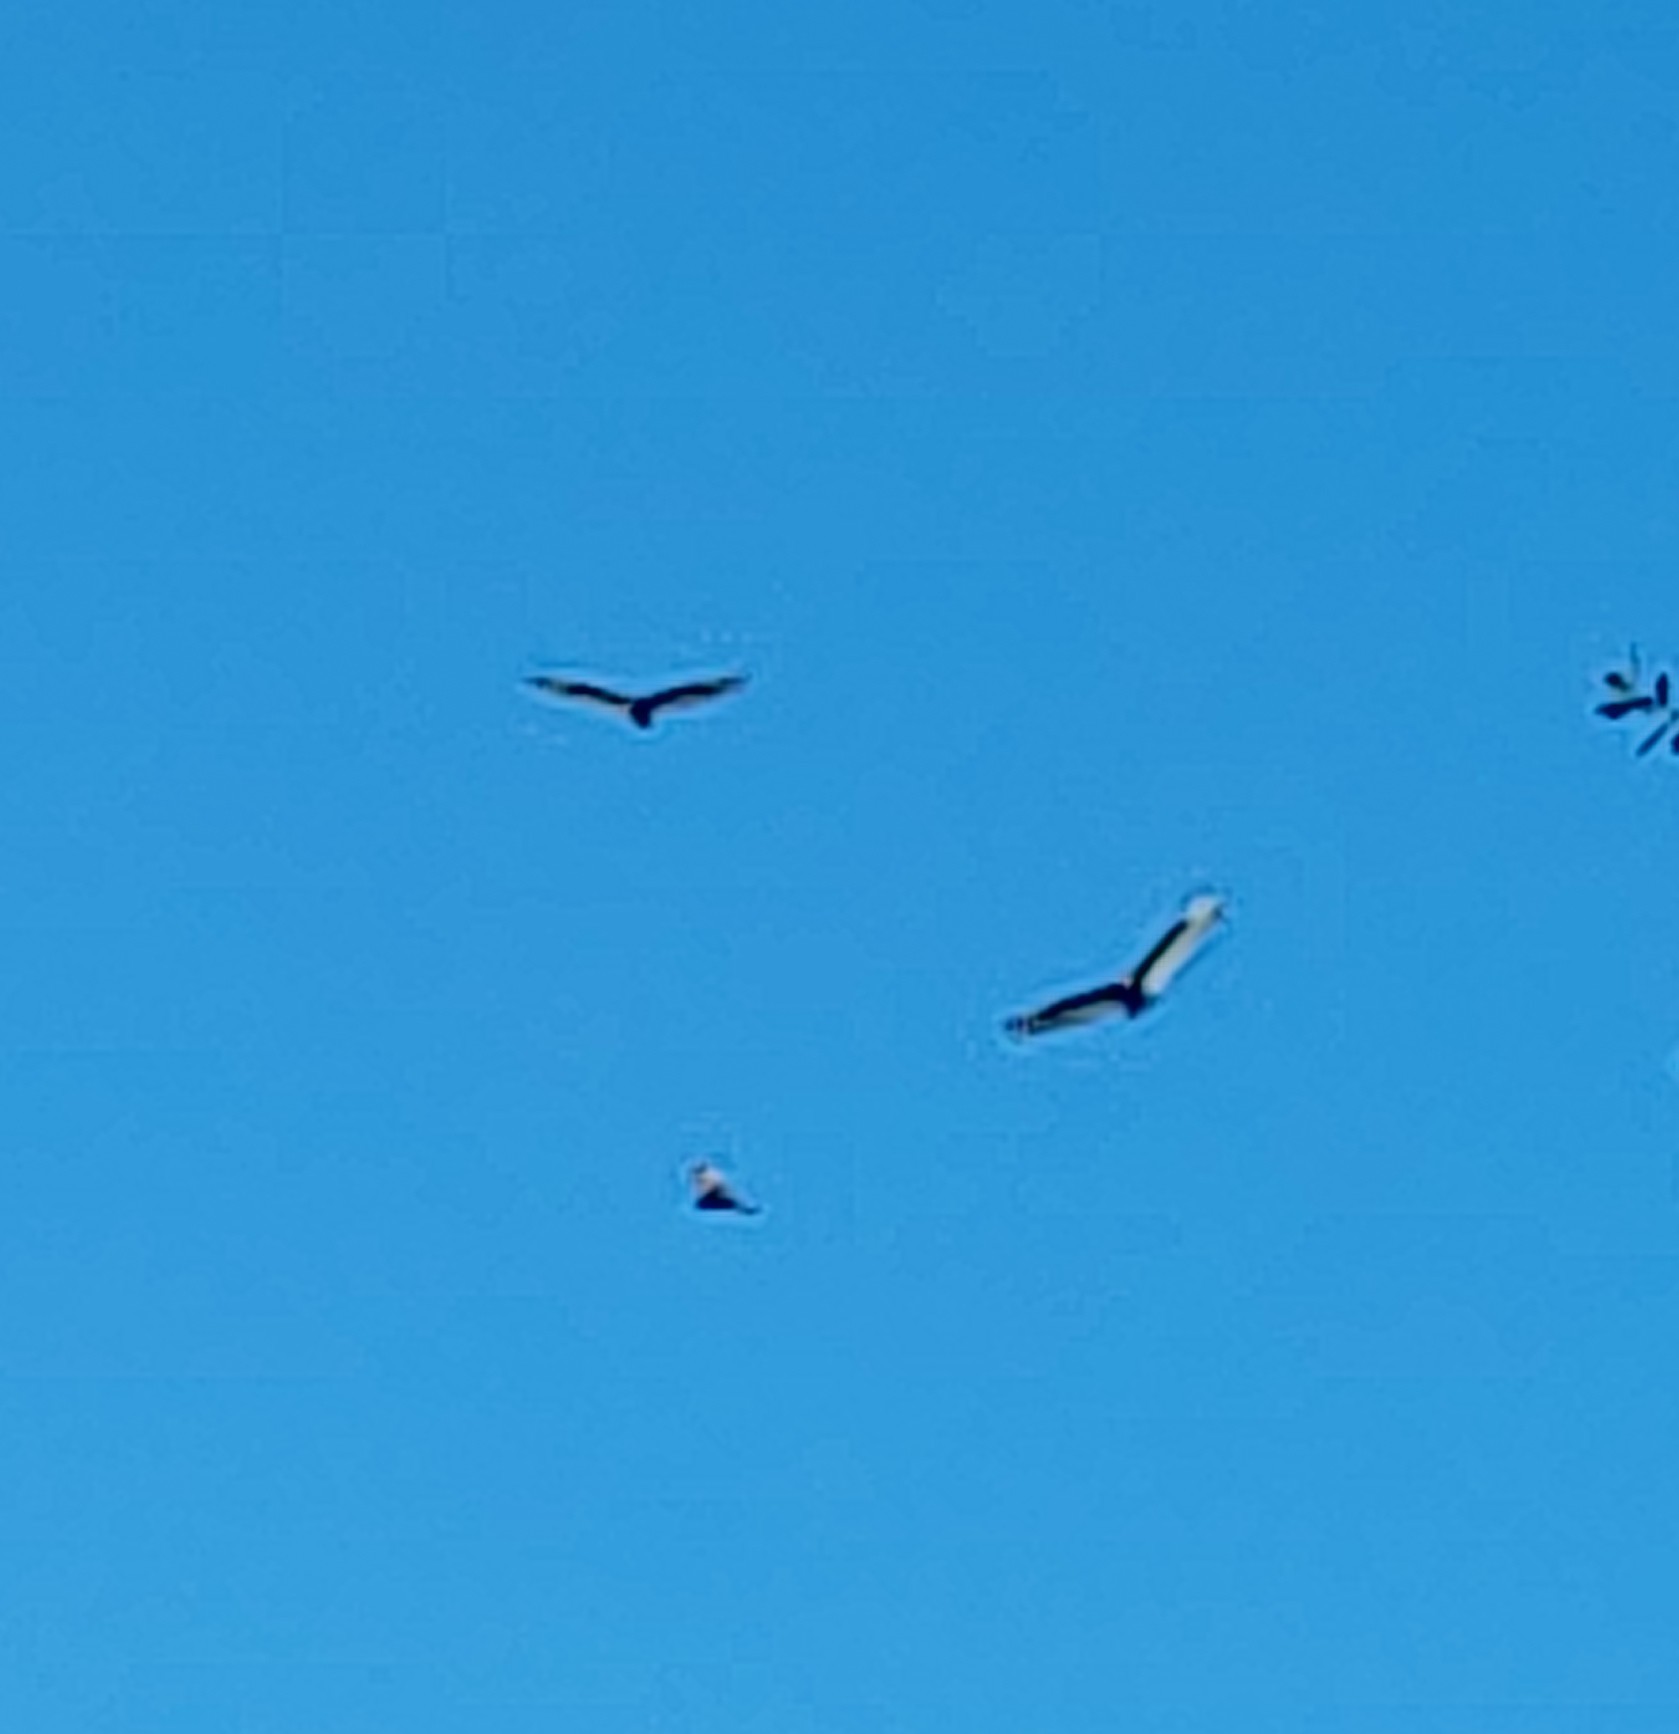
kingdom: Animalia
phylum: Chordata
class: Aves
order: Accipitriformes
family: Cathartidae
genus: Cathartes
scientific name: Cathartes aura
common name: Turkey vulture
